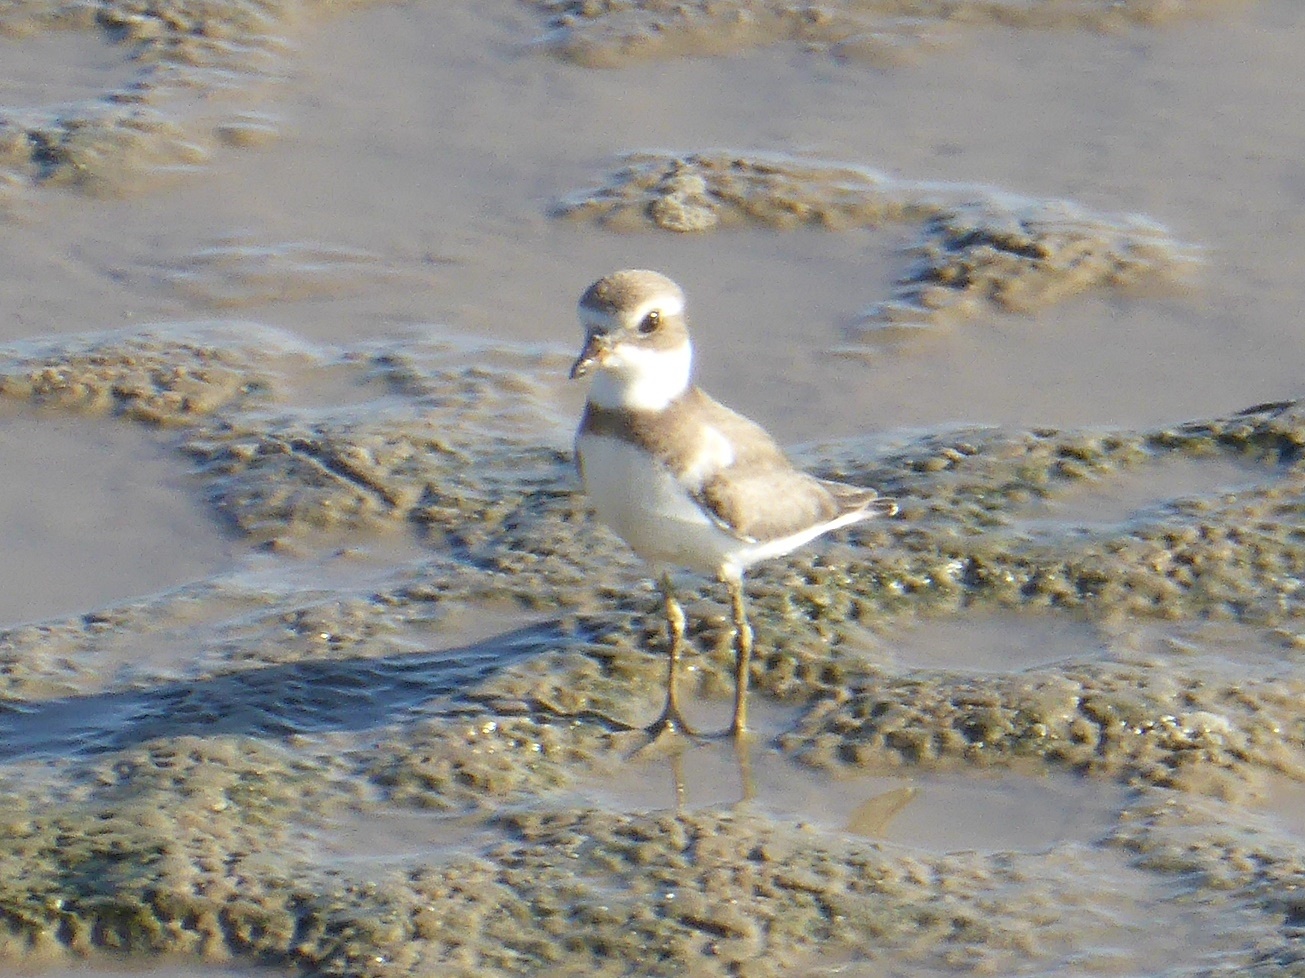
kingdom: Animalia
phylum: Chordata
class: Aves
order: Charadriiformes
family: Charadriidae
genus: Charadrius
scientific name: Charadrius semipalmatus
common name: Semipalmated plover
